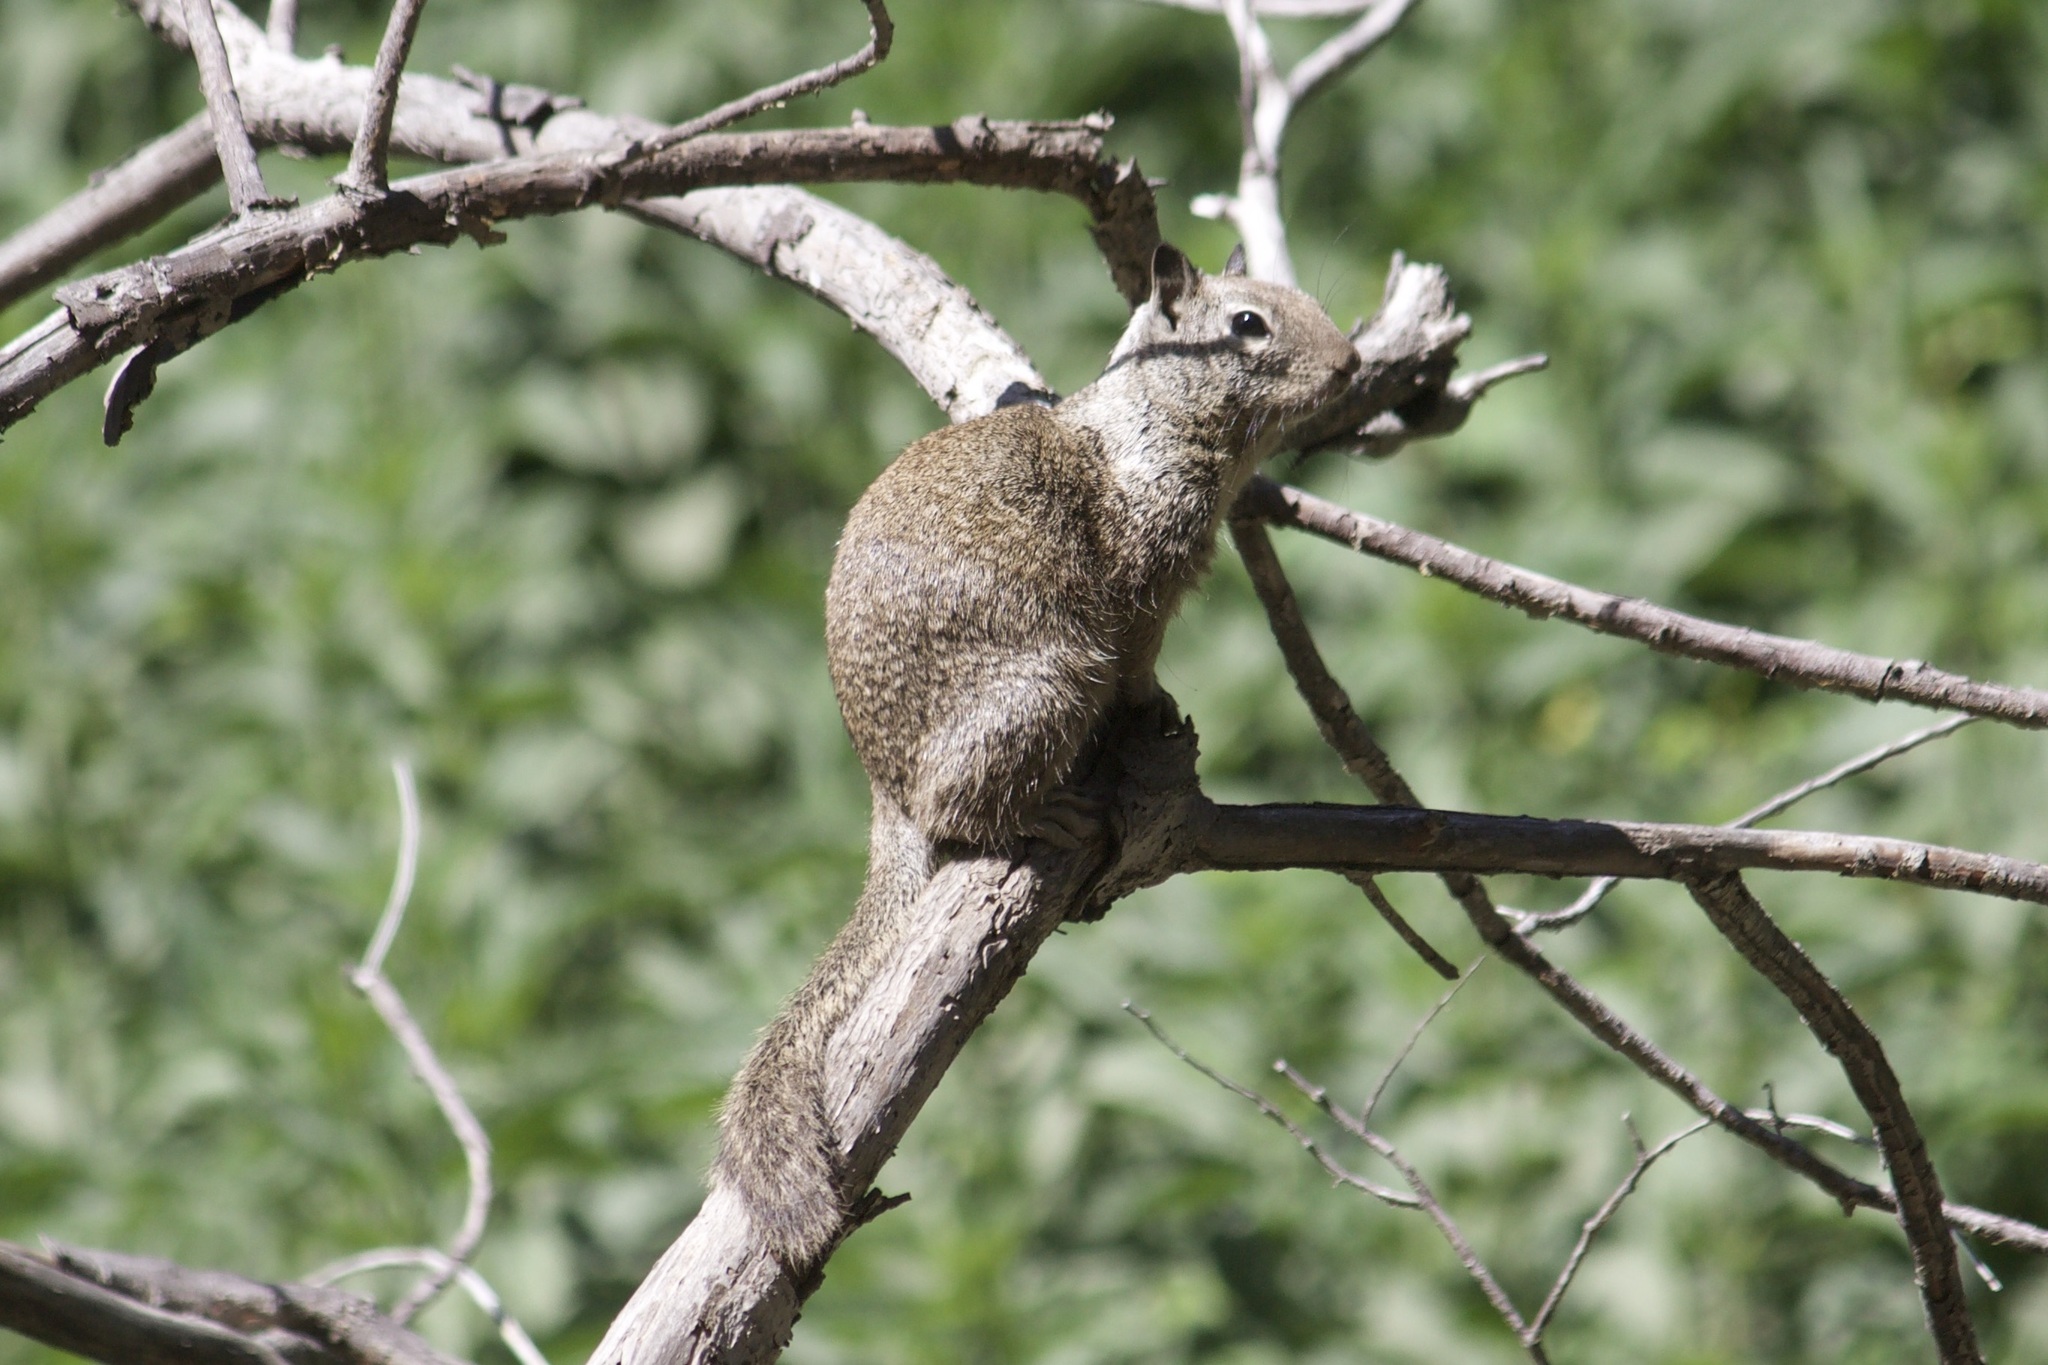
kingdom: Animalia
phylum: Chordata
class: Mammalia
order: Rodentia
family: Sciuridae
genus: Otospermophilus
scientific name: Otospermophilus beecheyi
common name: California ground squirrel
